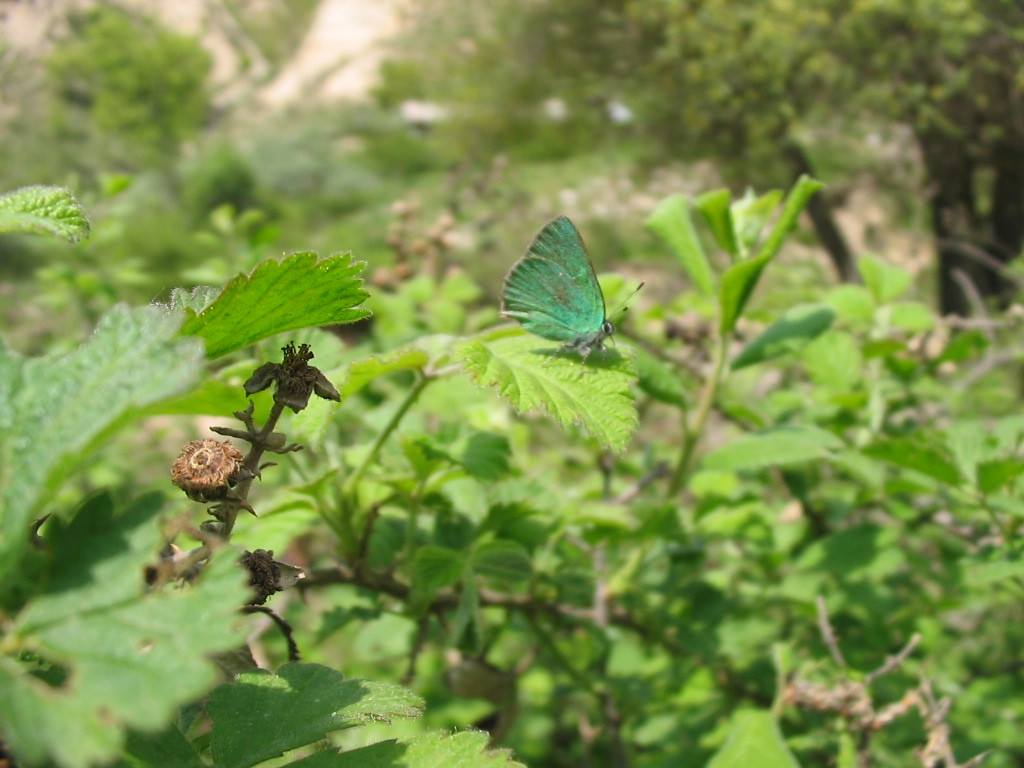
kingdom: Animalia
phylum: Arthropoda
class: Insecta
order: Lepidoptera
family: Lycaenidae
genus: Callophrys
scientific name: Callophrys rubi
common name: Green hairstreak
